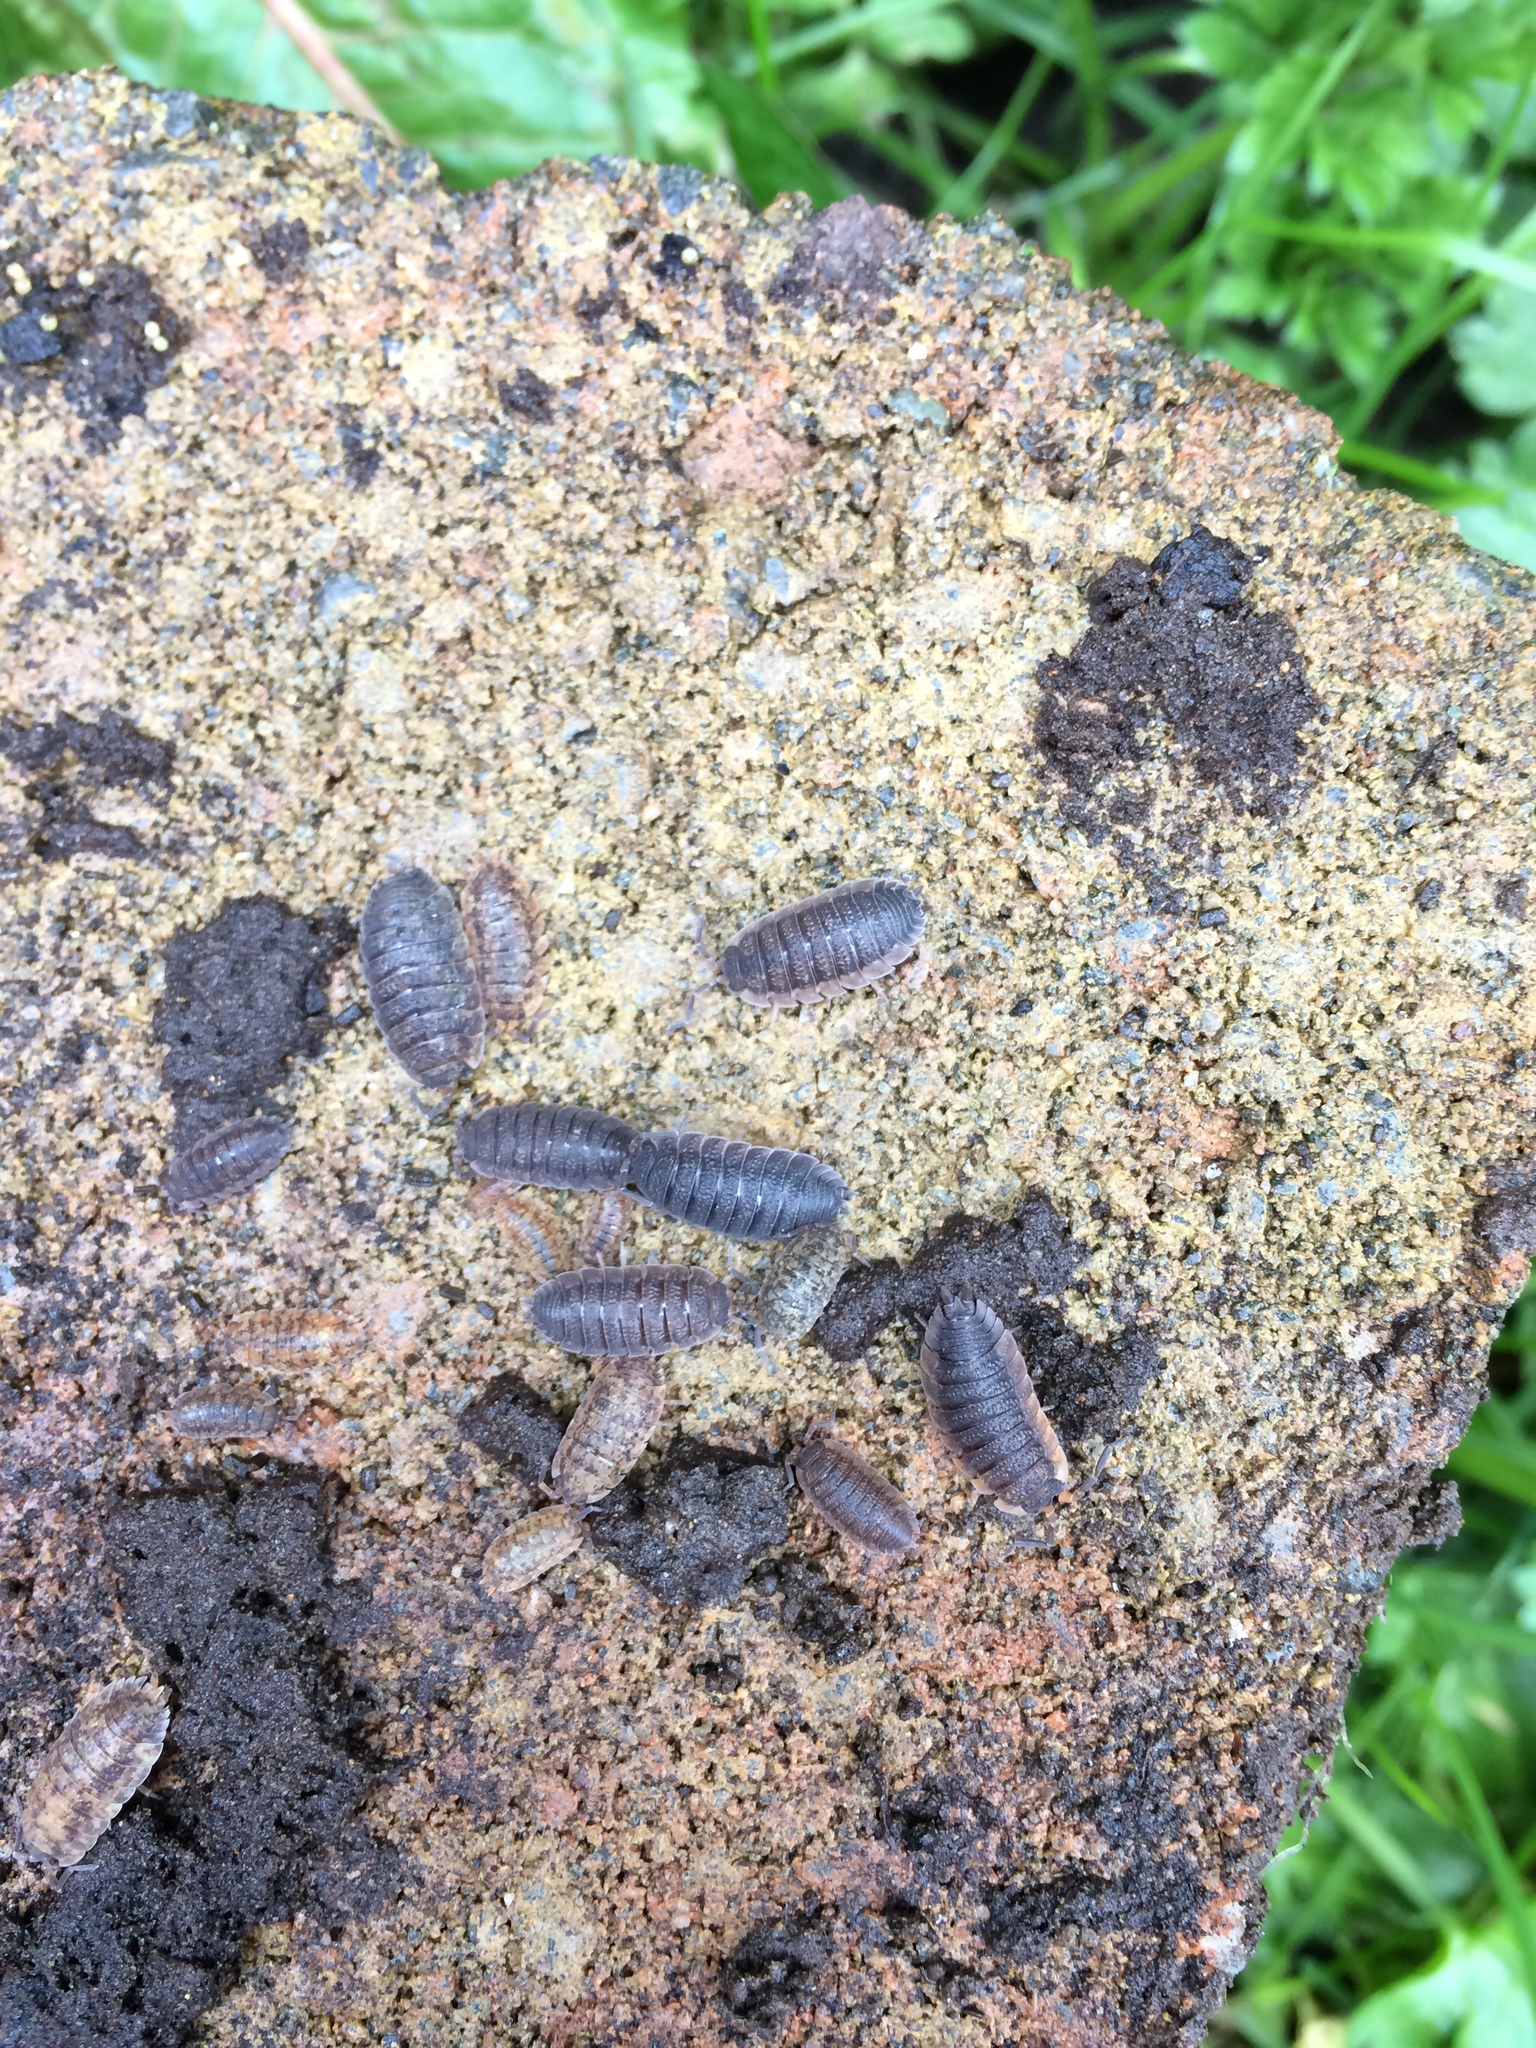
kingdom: Animalia
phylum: Arthropoda
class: Malacostraca
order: Isopoda
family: Porcellionidae
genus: Porcellio
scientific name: Porcellio scaber
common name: Common rough woodlouse
